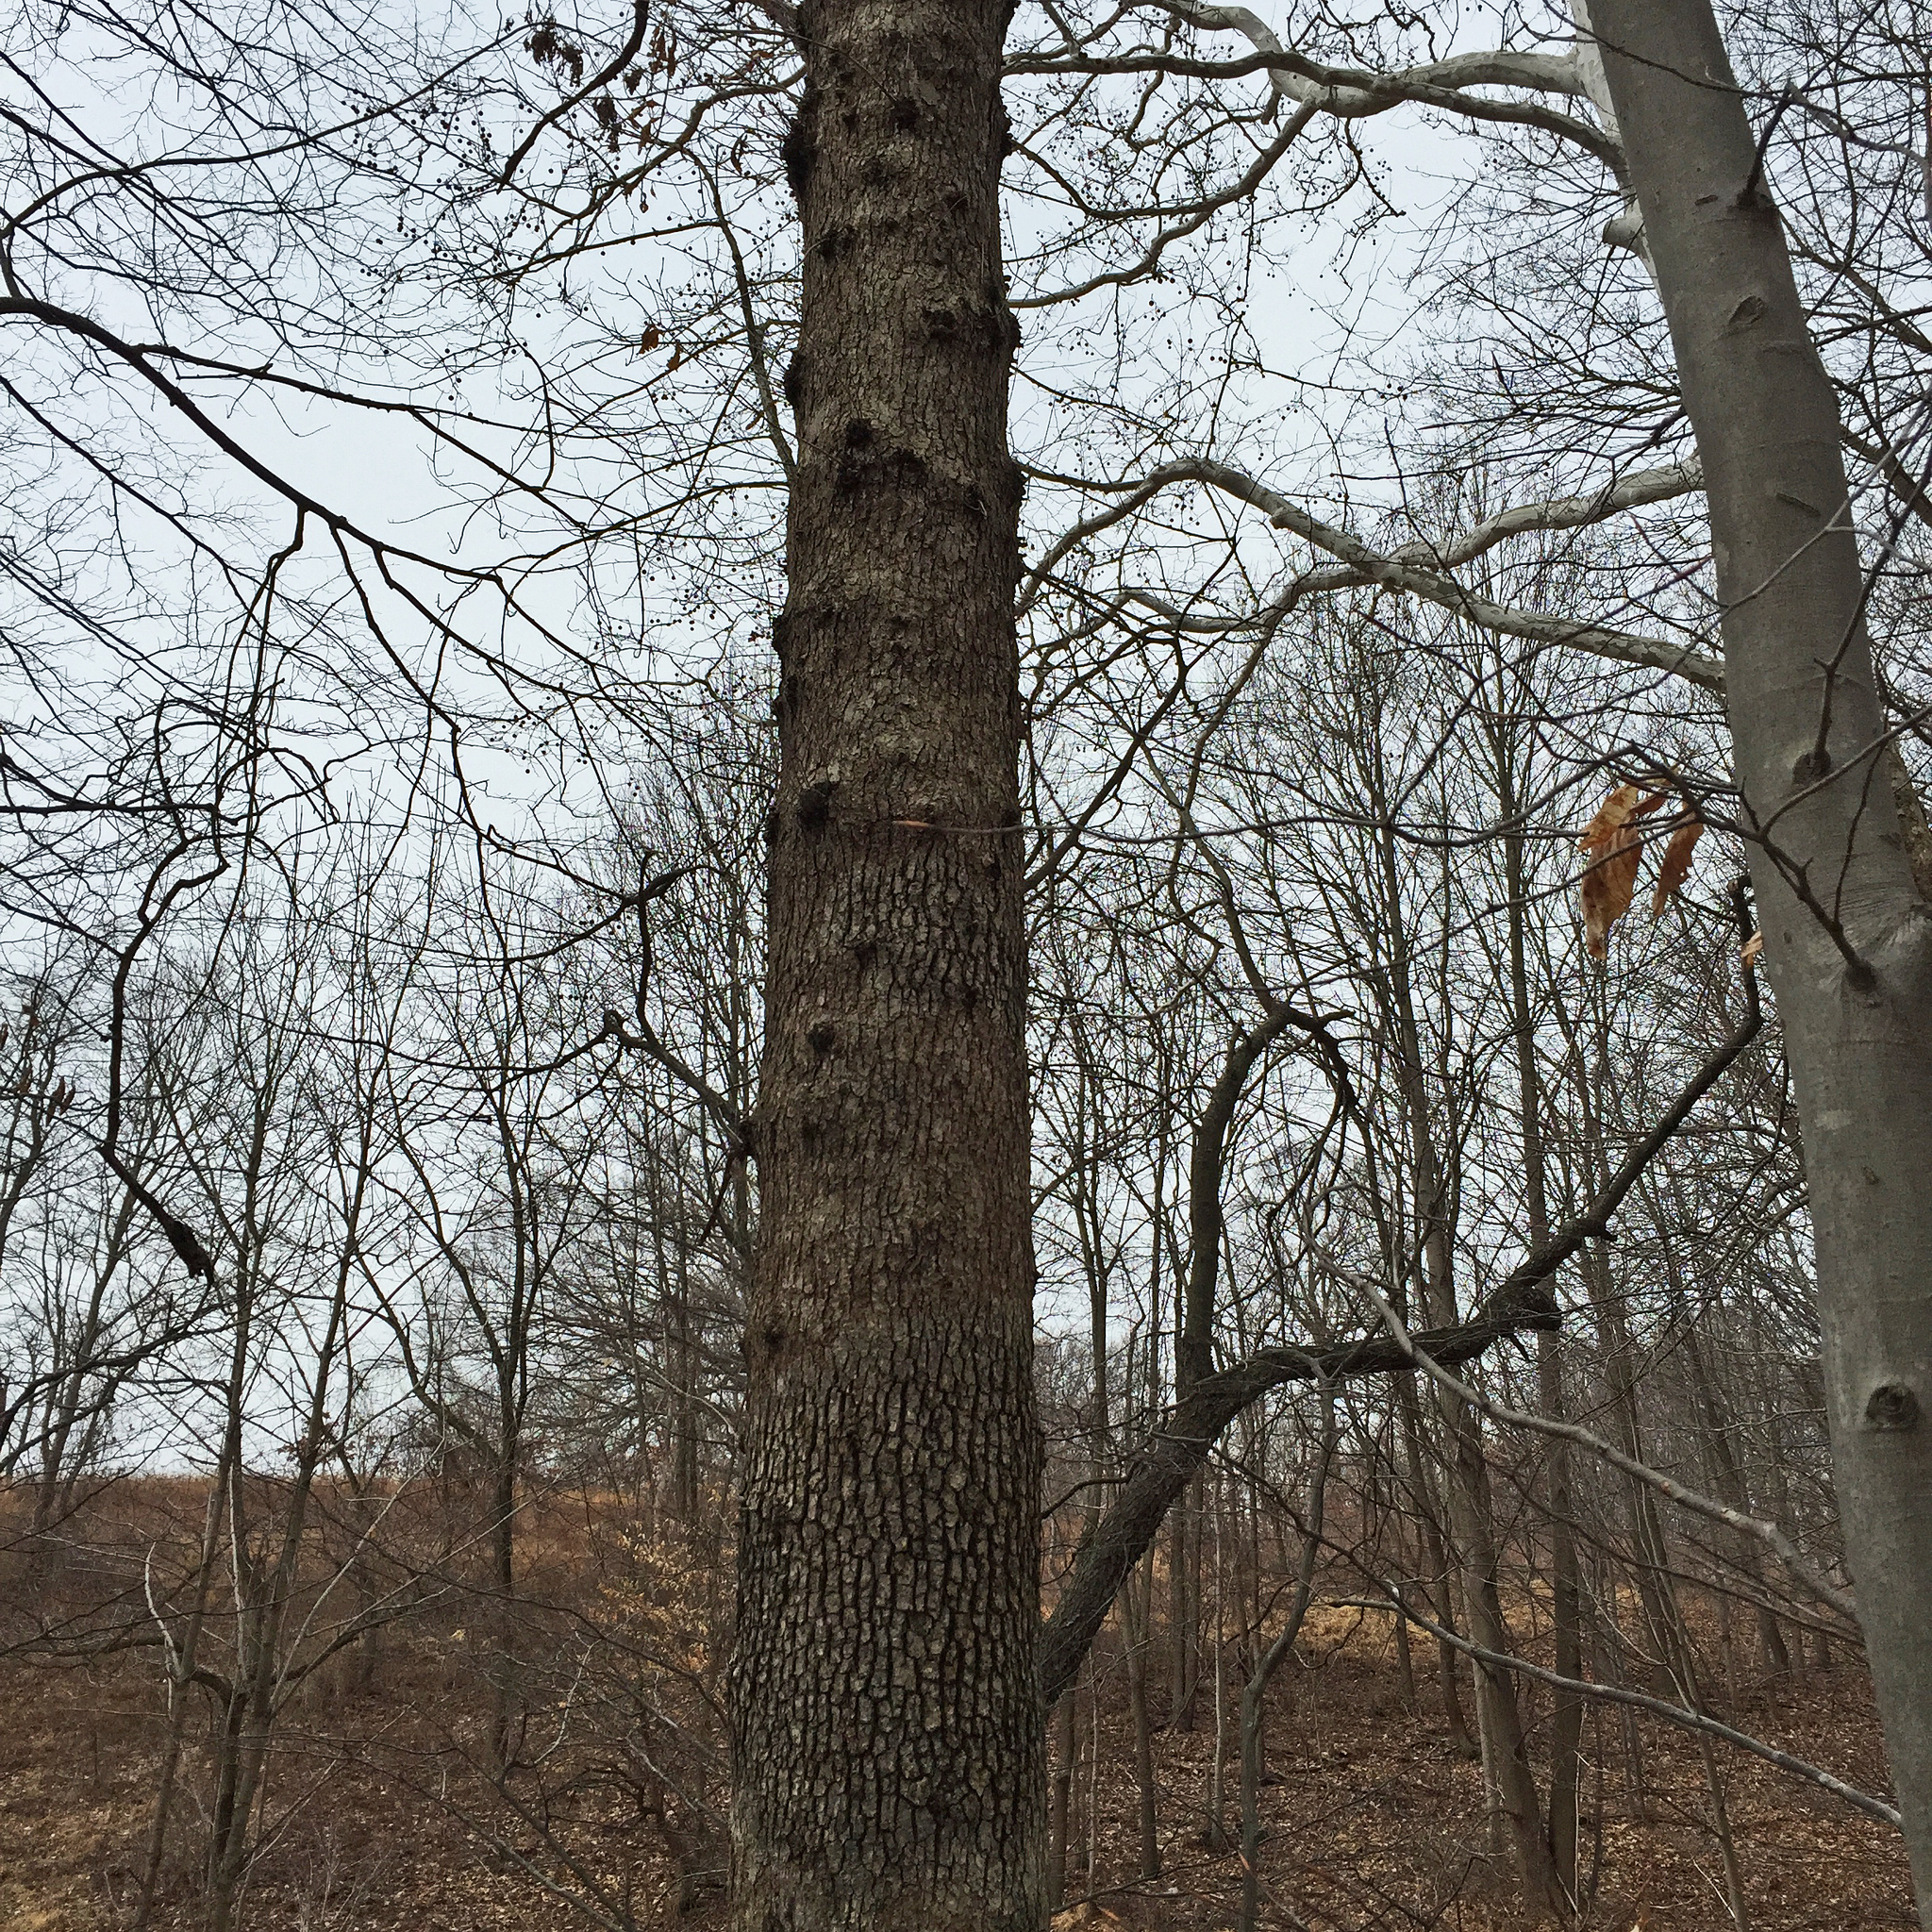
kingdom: Plantae
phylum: Tracheophyta
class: Magnoliopsida
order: Fagales
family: Fagaceae
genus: Quercus
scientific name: Quercus alba
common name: White oak
